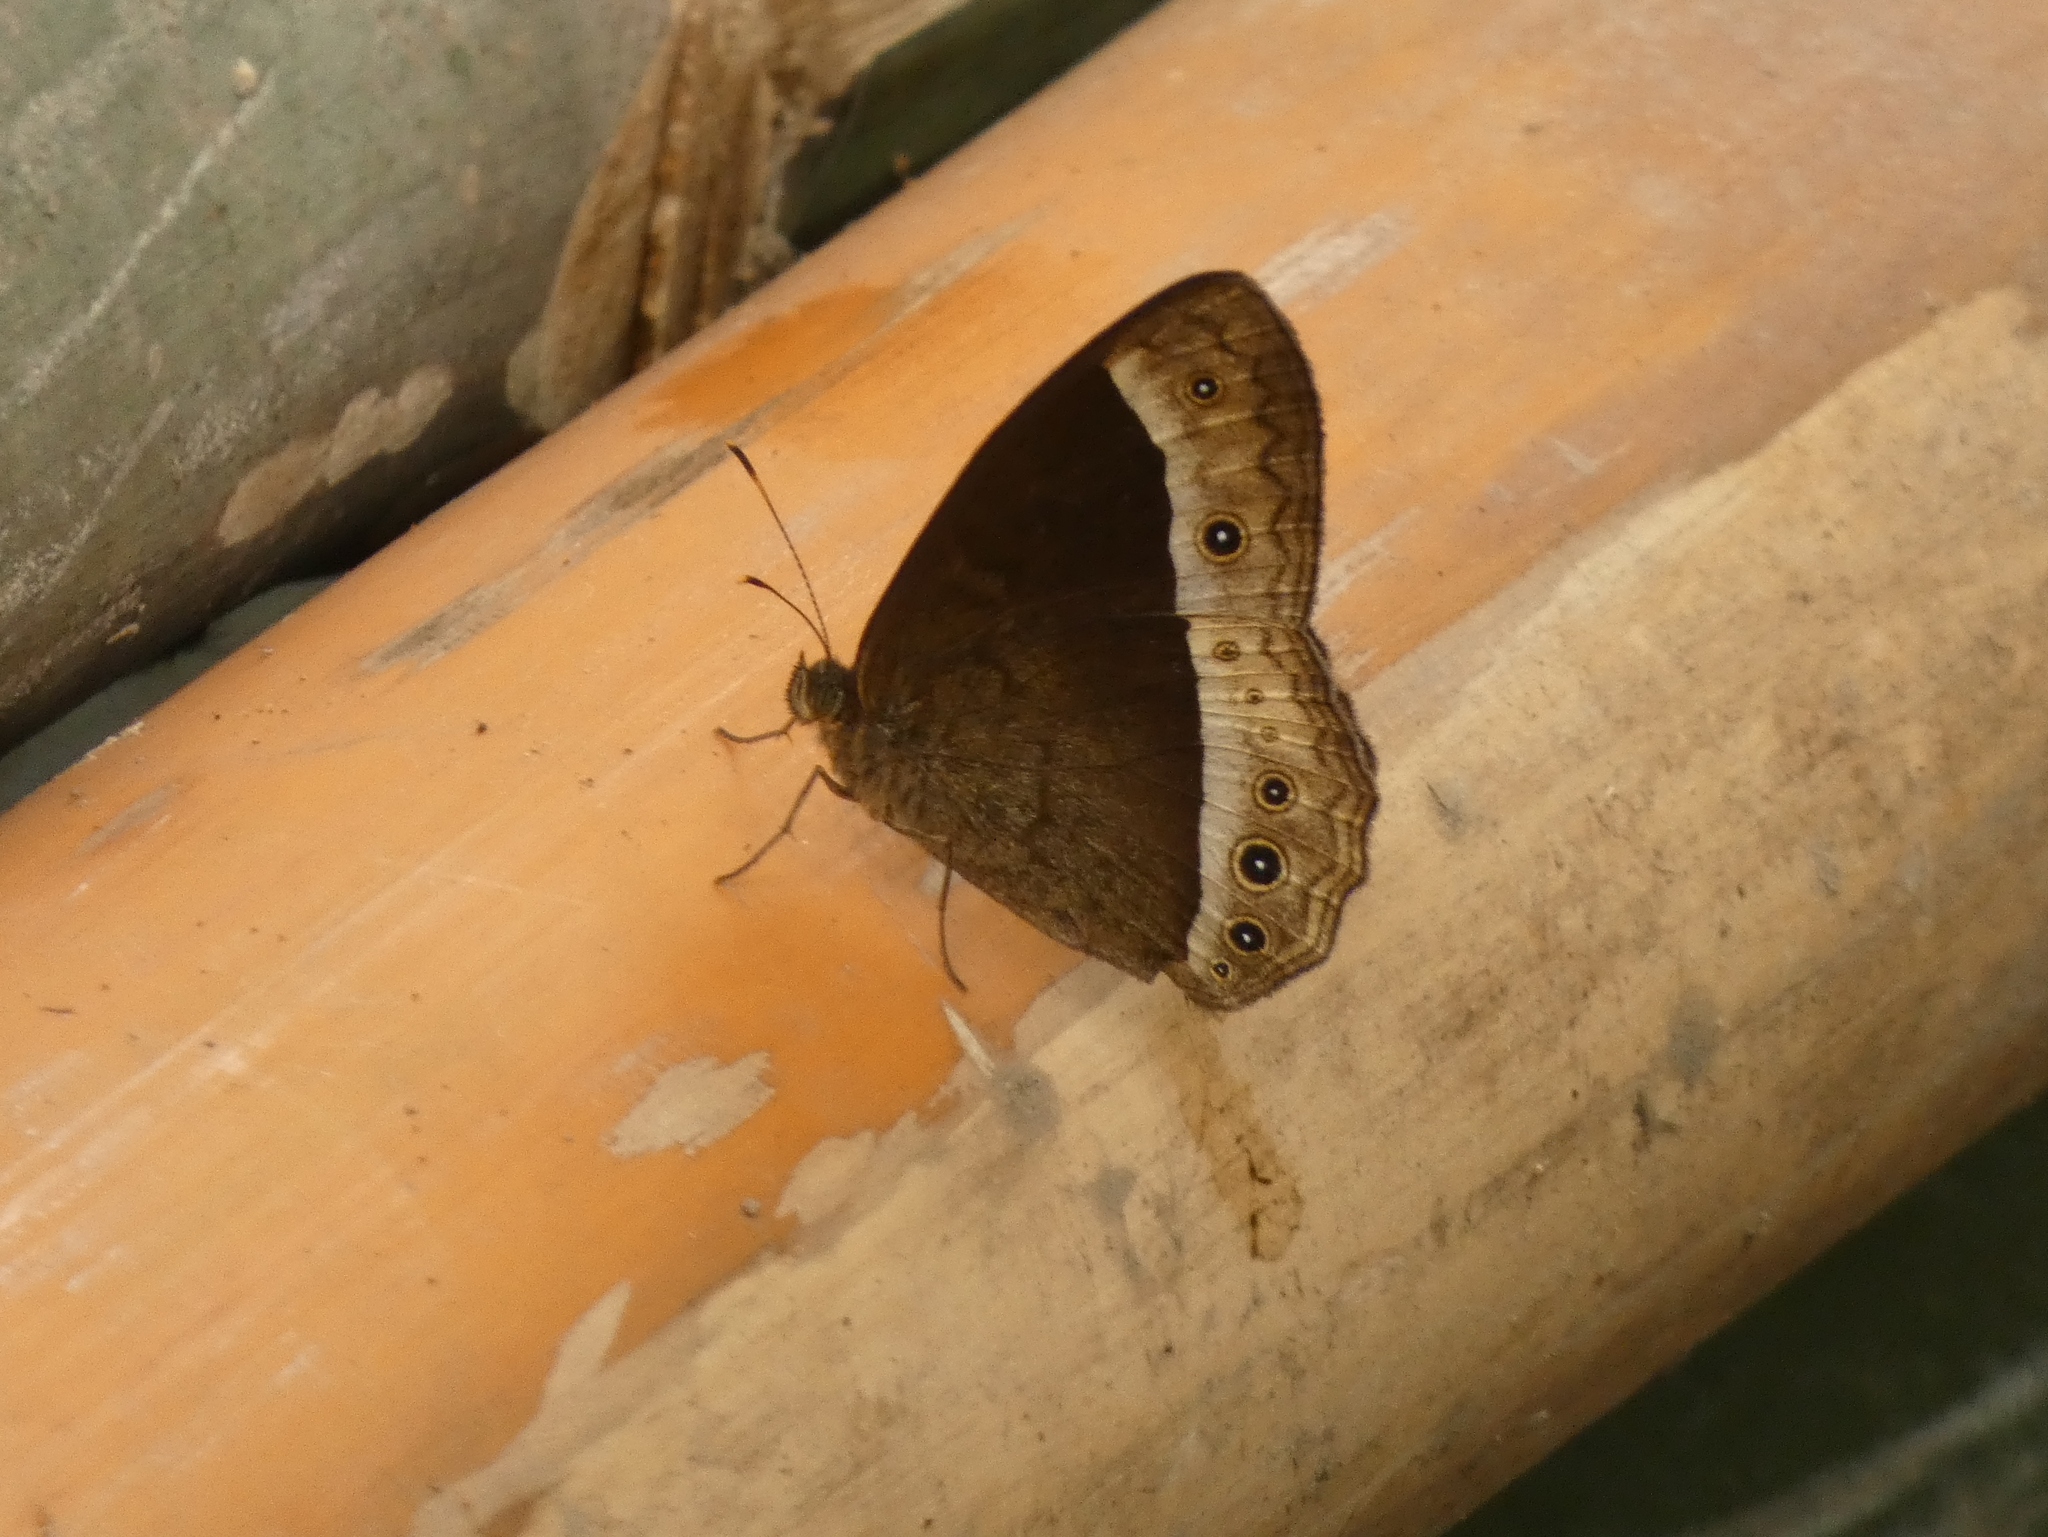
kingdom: Animalia
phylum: Arthropoda
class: Insecta
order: Lepidoptera
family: Nymphalidae
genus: Mycalesis
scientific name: Mycalesis sudra
